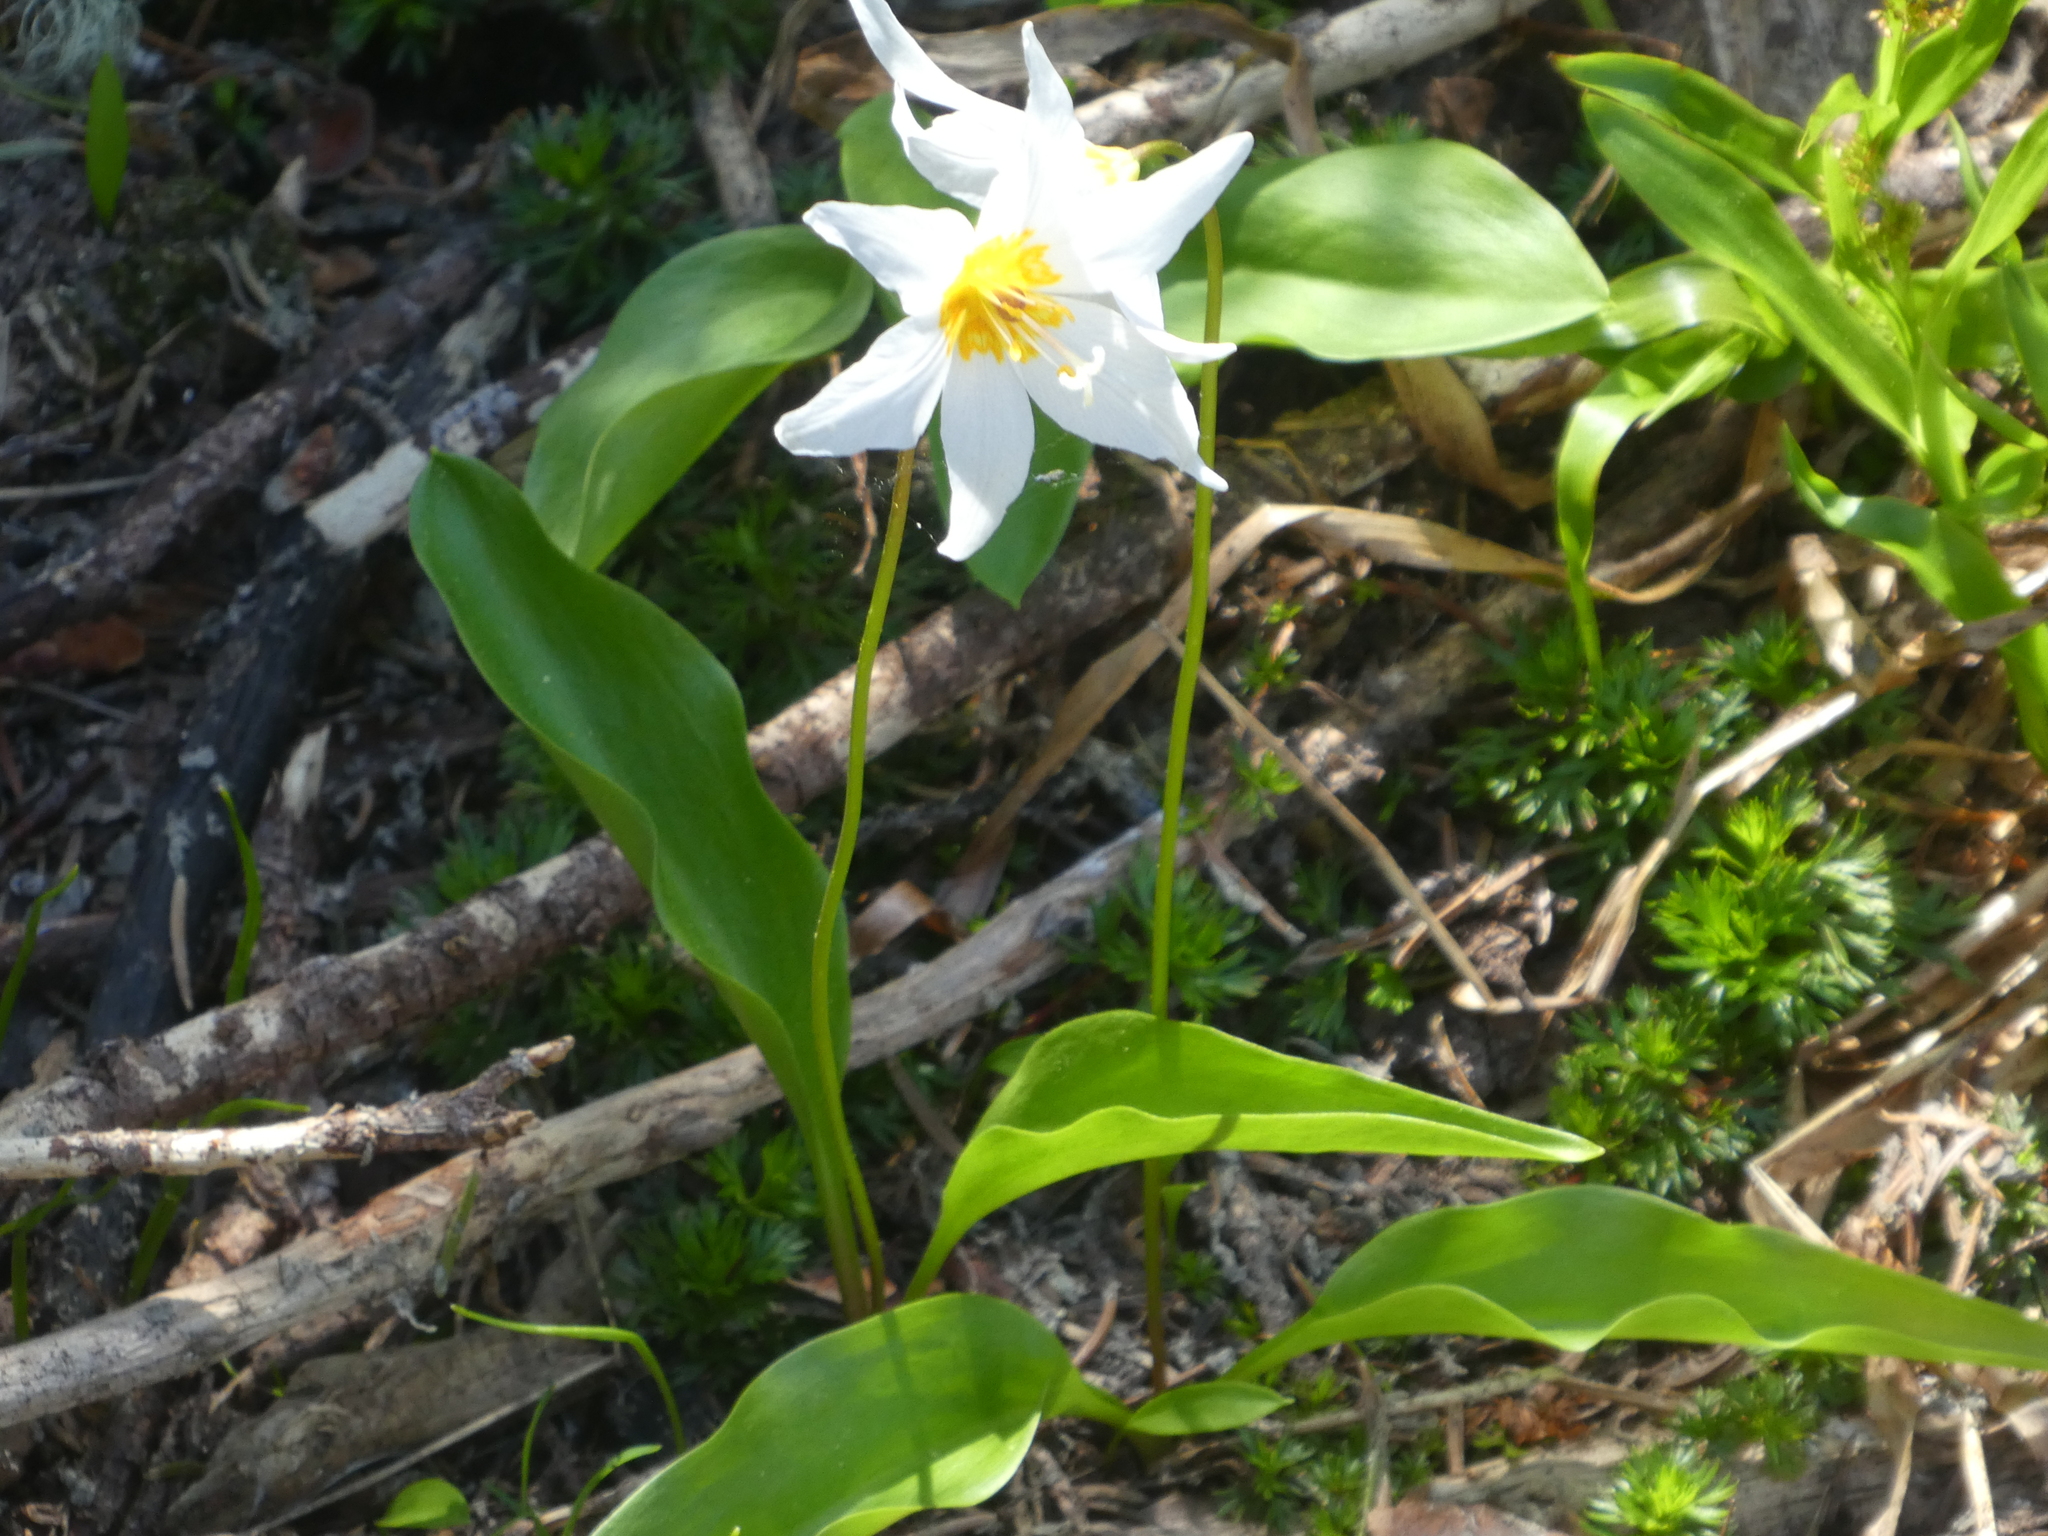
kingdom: Plantae
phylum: Tracheophyta
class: Liliopsida
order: Liliales
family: Liliaceae
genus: Erythronium
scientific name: Erythronium montanum
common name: Avalanche lily
